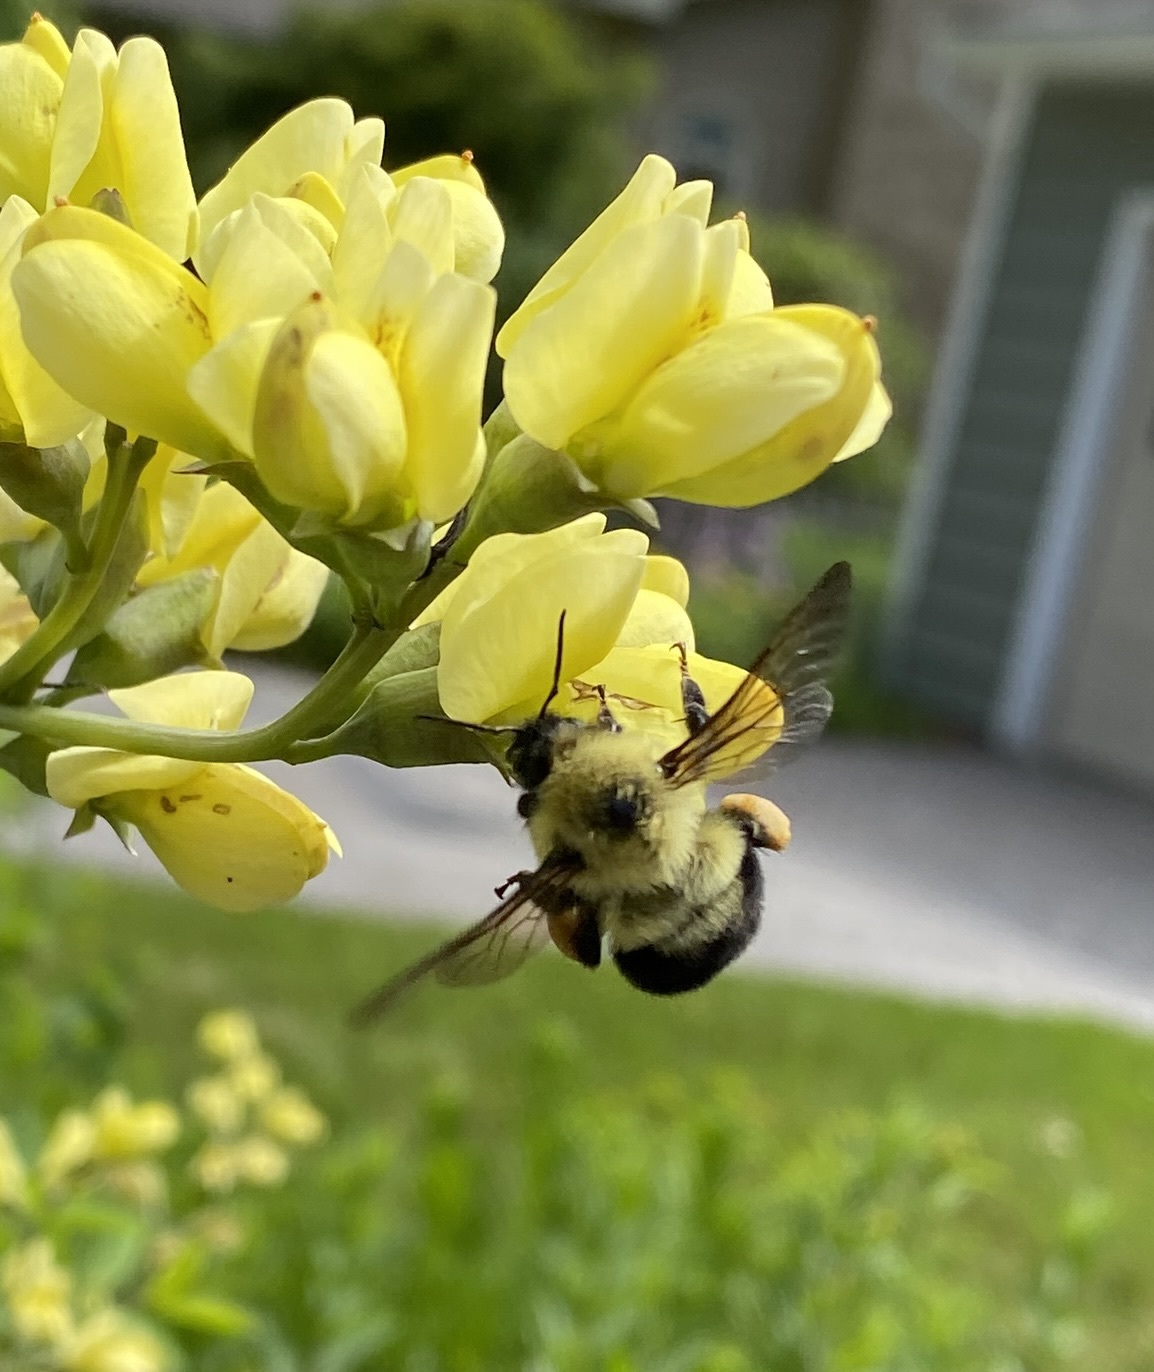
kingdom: Animalia
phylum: Arthropoda
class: Insecta
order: Hymenoptera
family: Apidae
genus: Bombus
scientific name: Bombus bimaculatus
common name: Two-spotted bumble bee
